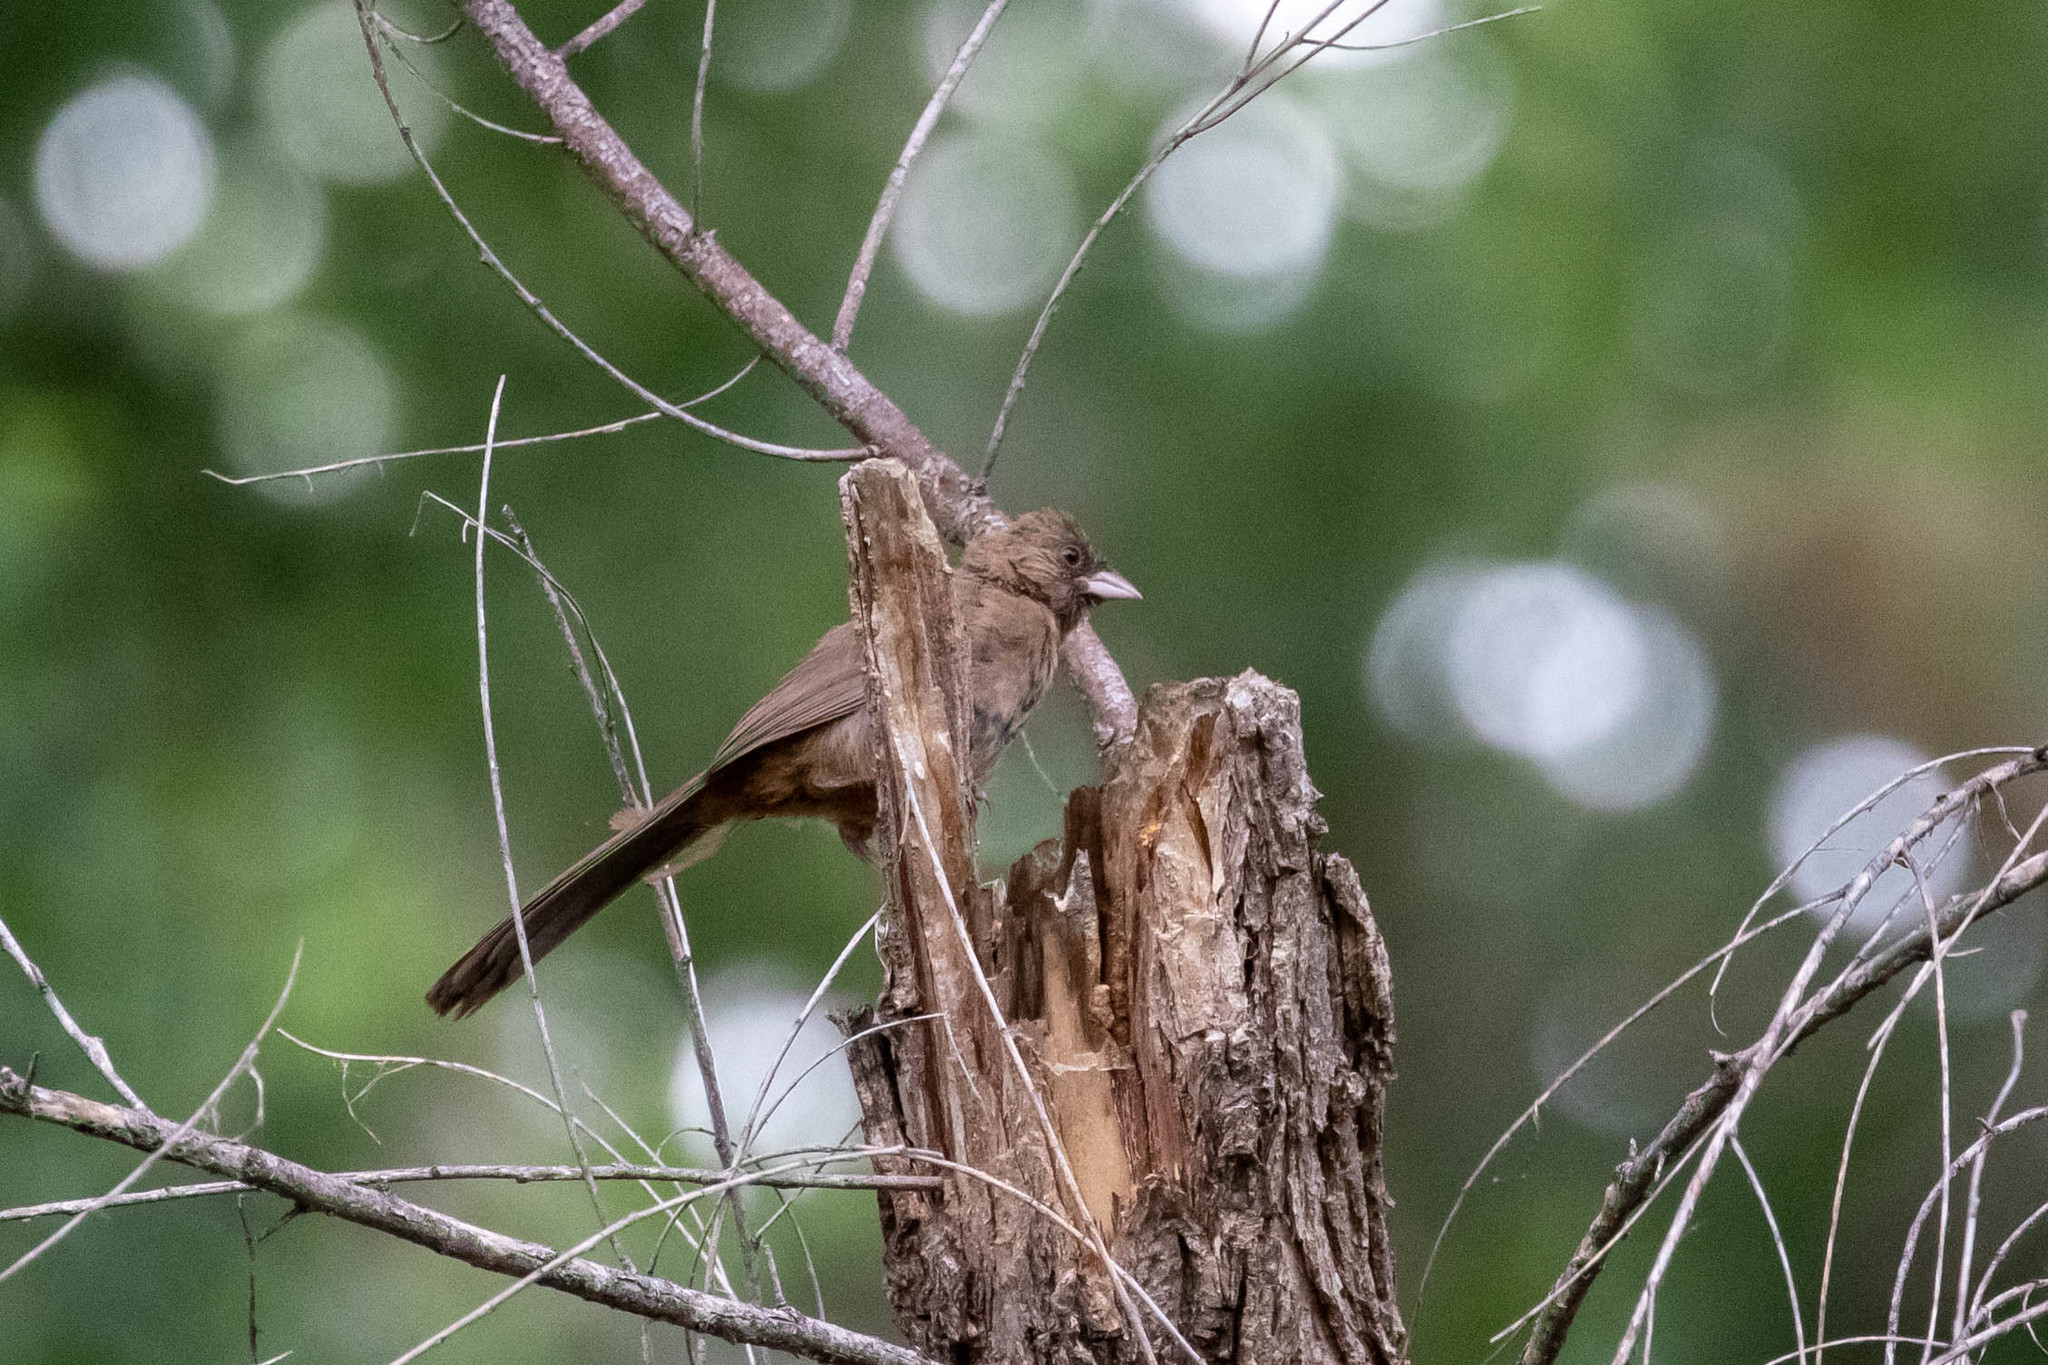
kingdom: Animalia
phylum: Chordata
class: Aves
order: Passeriformes
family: Passerellidae
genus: Melozone
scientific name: Melozone aberti
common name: Abert's towhee
